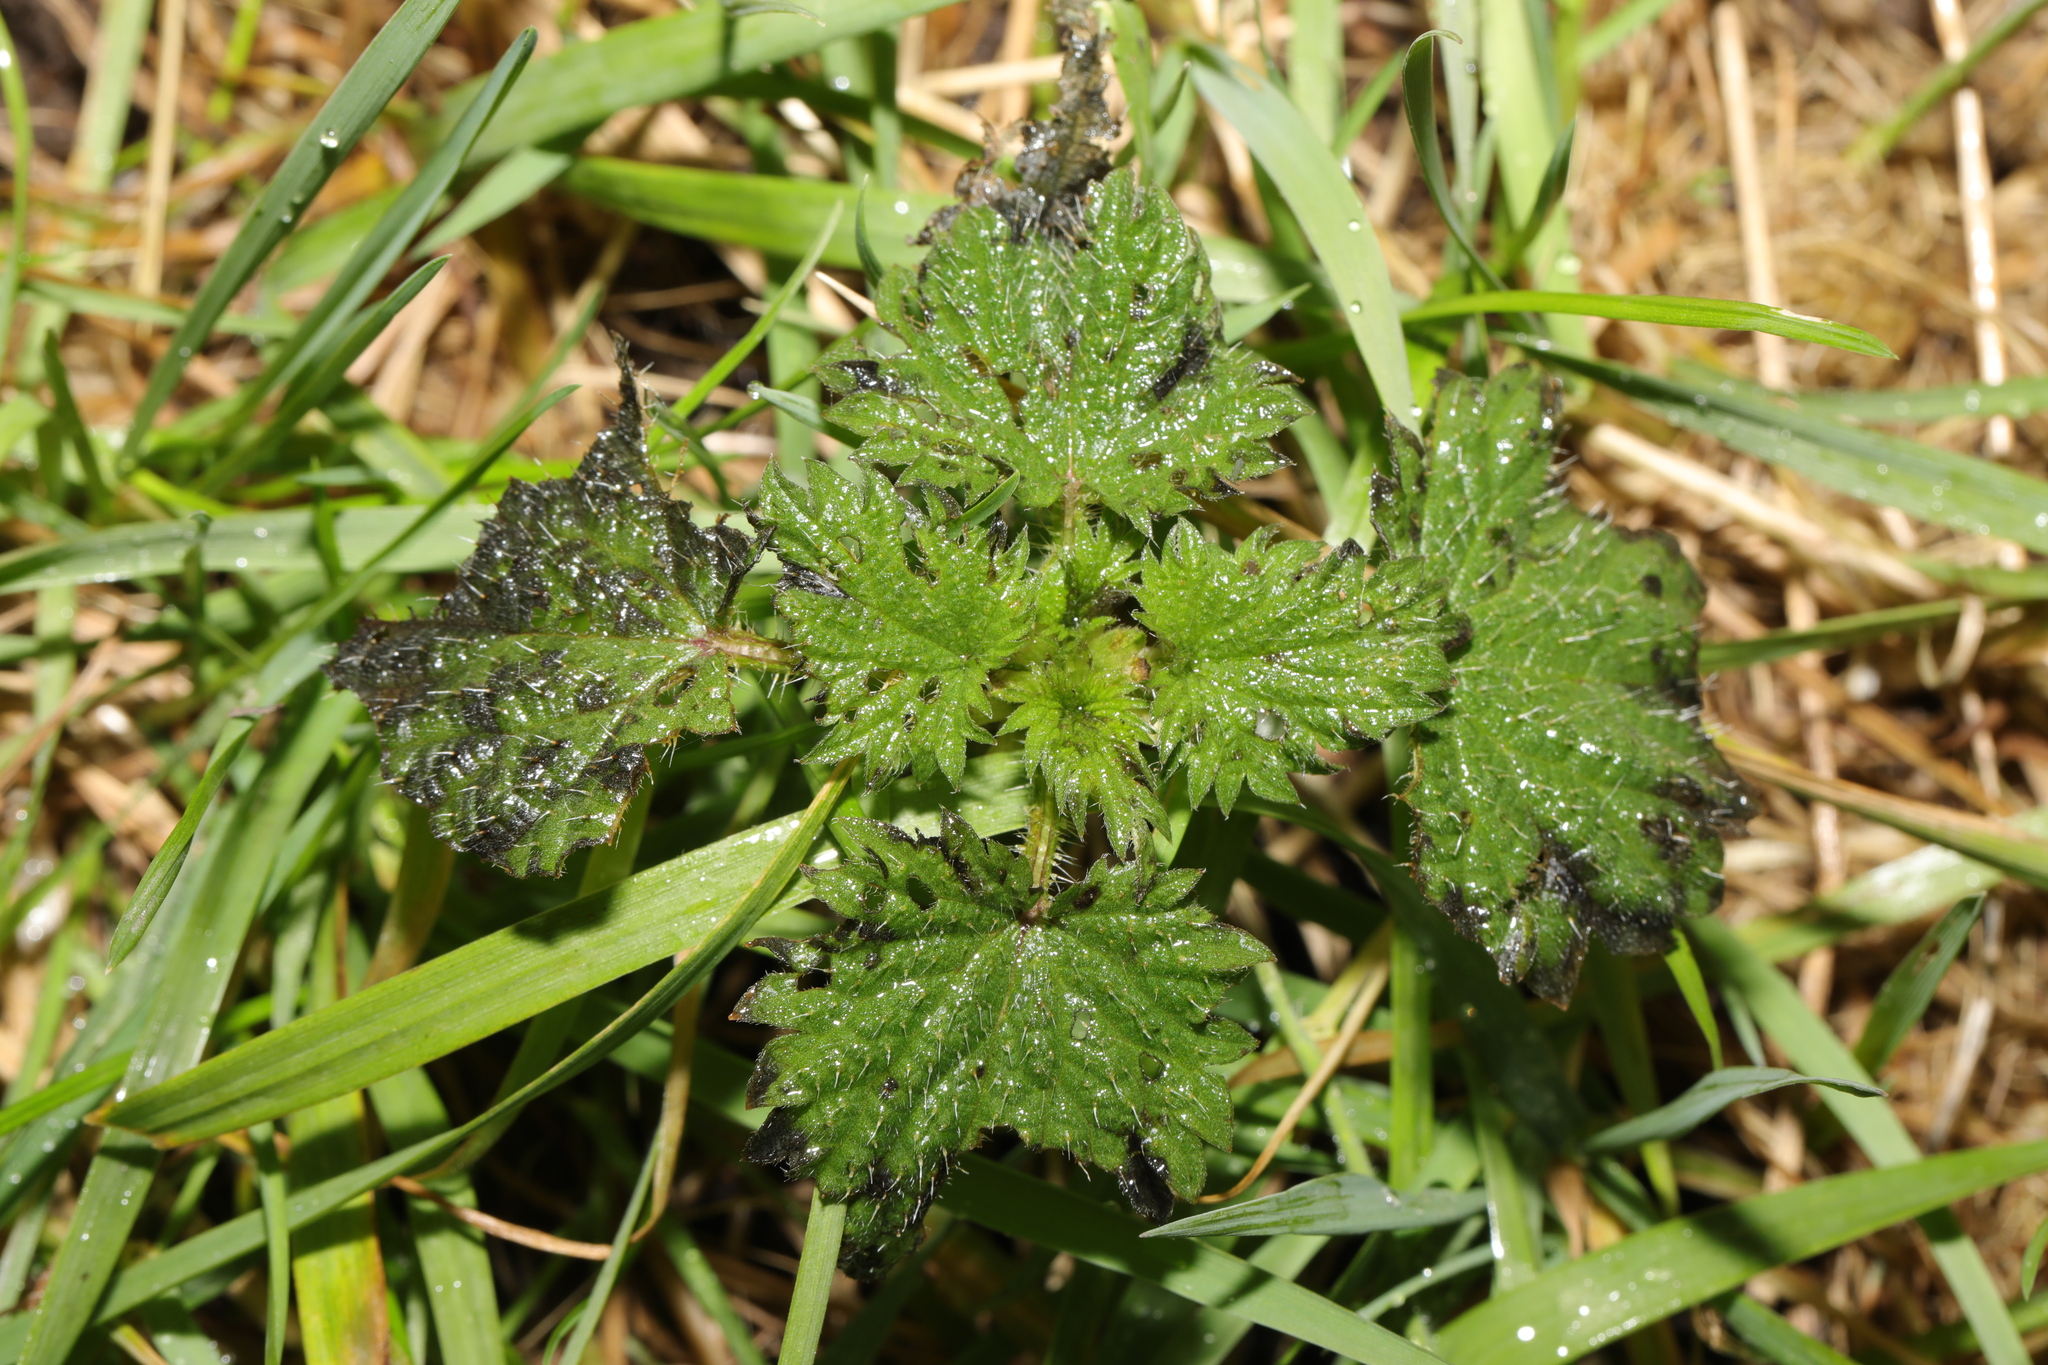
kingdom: Plantae
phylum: Tracheophyta
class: Magnoliopsida
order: Rosales
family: Urticaceae
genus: Urtica
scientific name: Urtica dioica
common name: Common nettle
